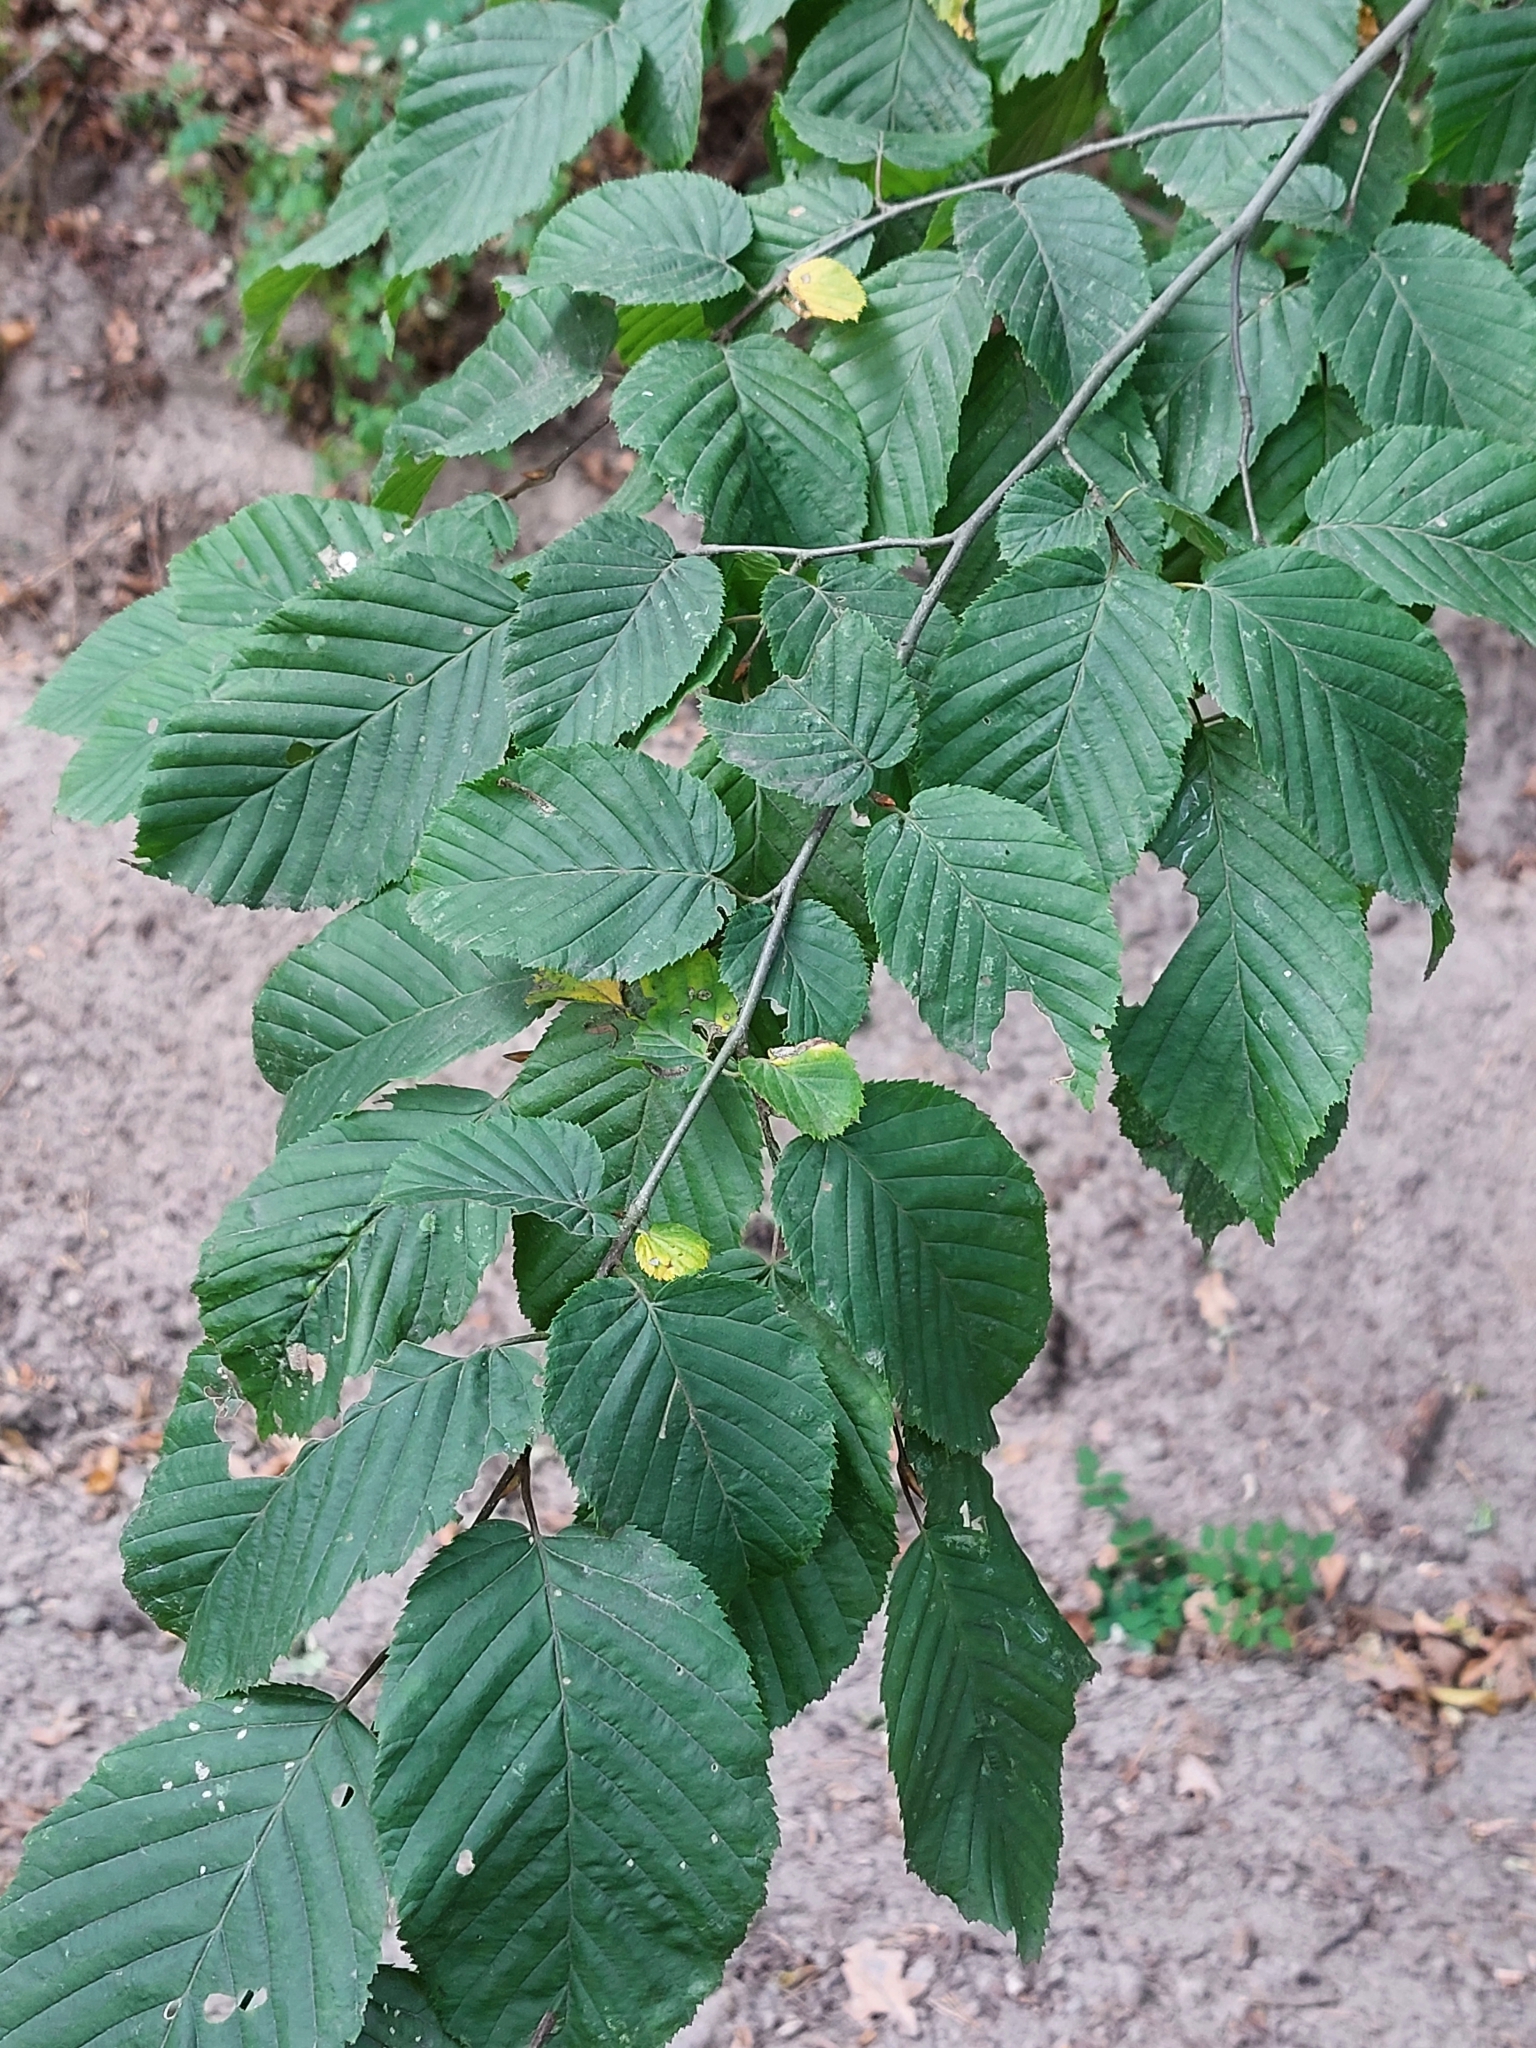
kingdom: Plantae
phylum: Tracheophyta
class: Magnoliopsida
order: Fagales
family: Betulaceae
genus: Carpinus
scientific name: Carpinus betulus
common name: Hornbeam
